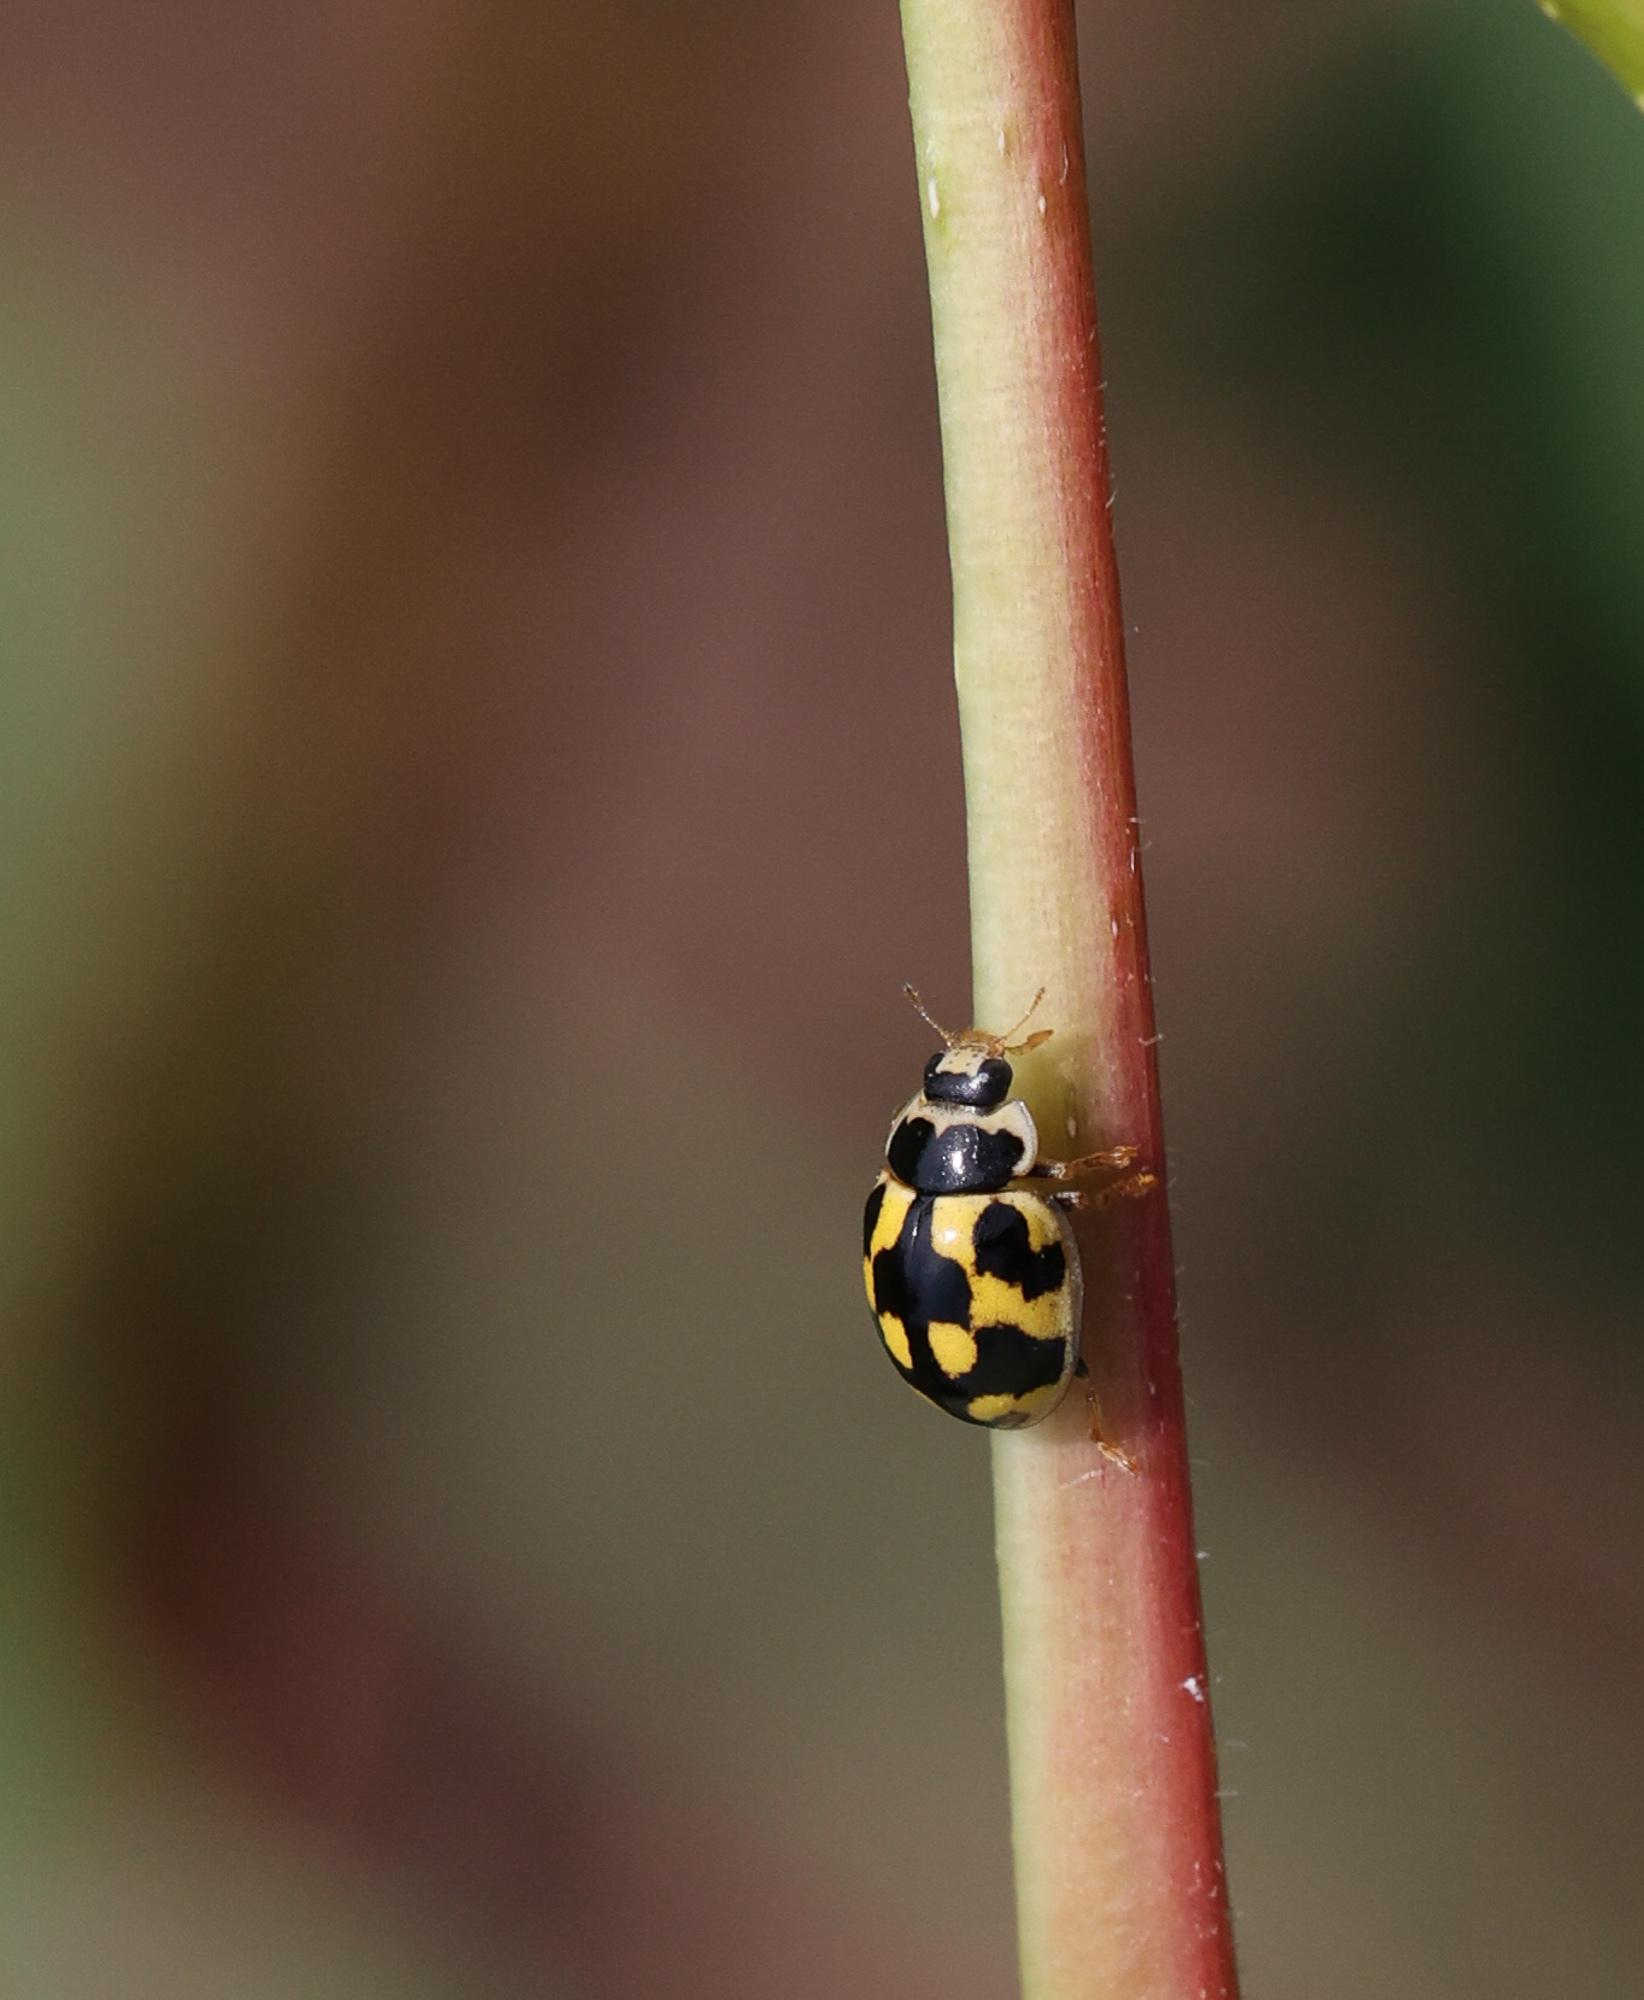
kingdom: Animalia
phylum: Arthropoda
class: Insecta
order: Coleoptera
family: Coccinellidae
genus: Propylaea
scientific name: Propylaea quatuordecimpunctata
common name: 14-spotted ladybird beetle
